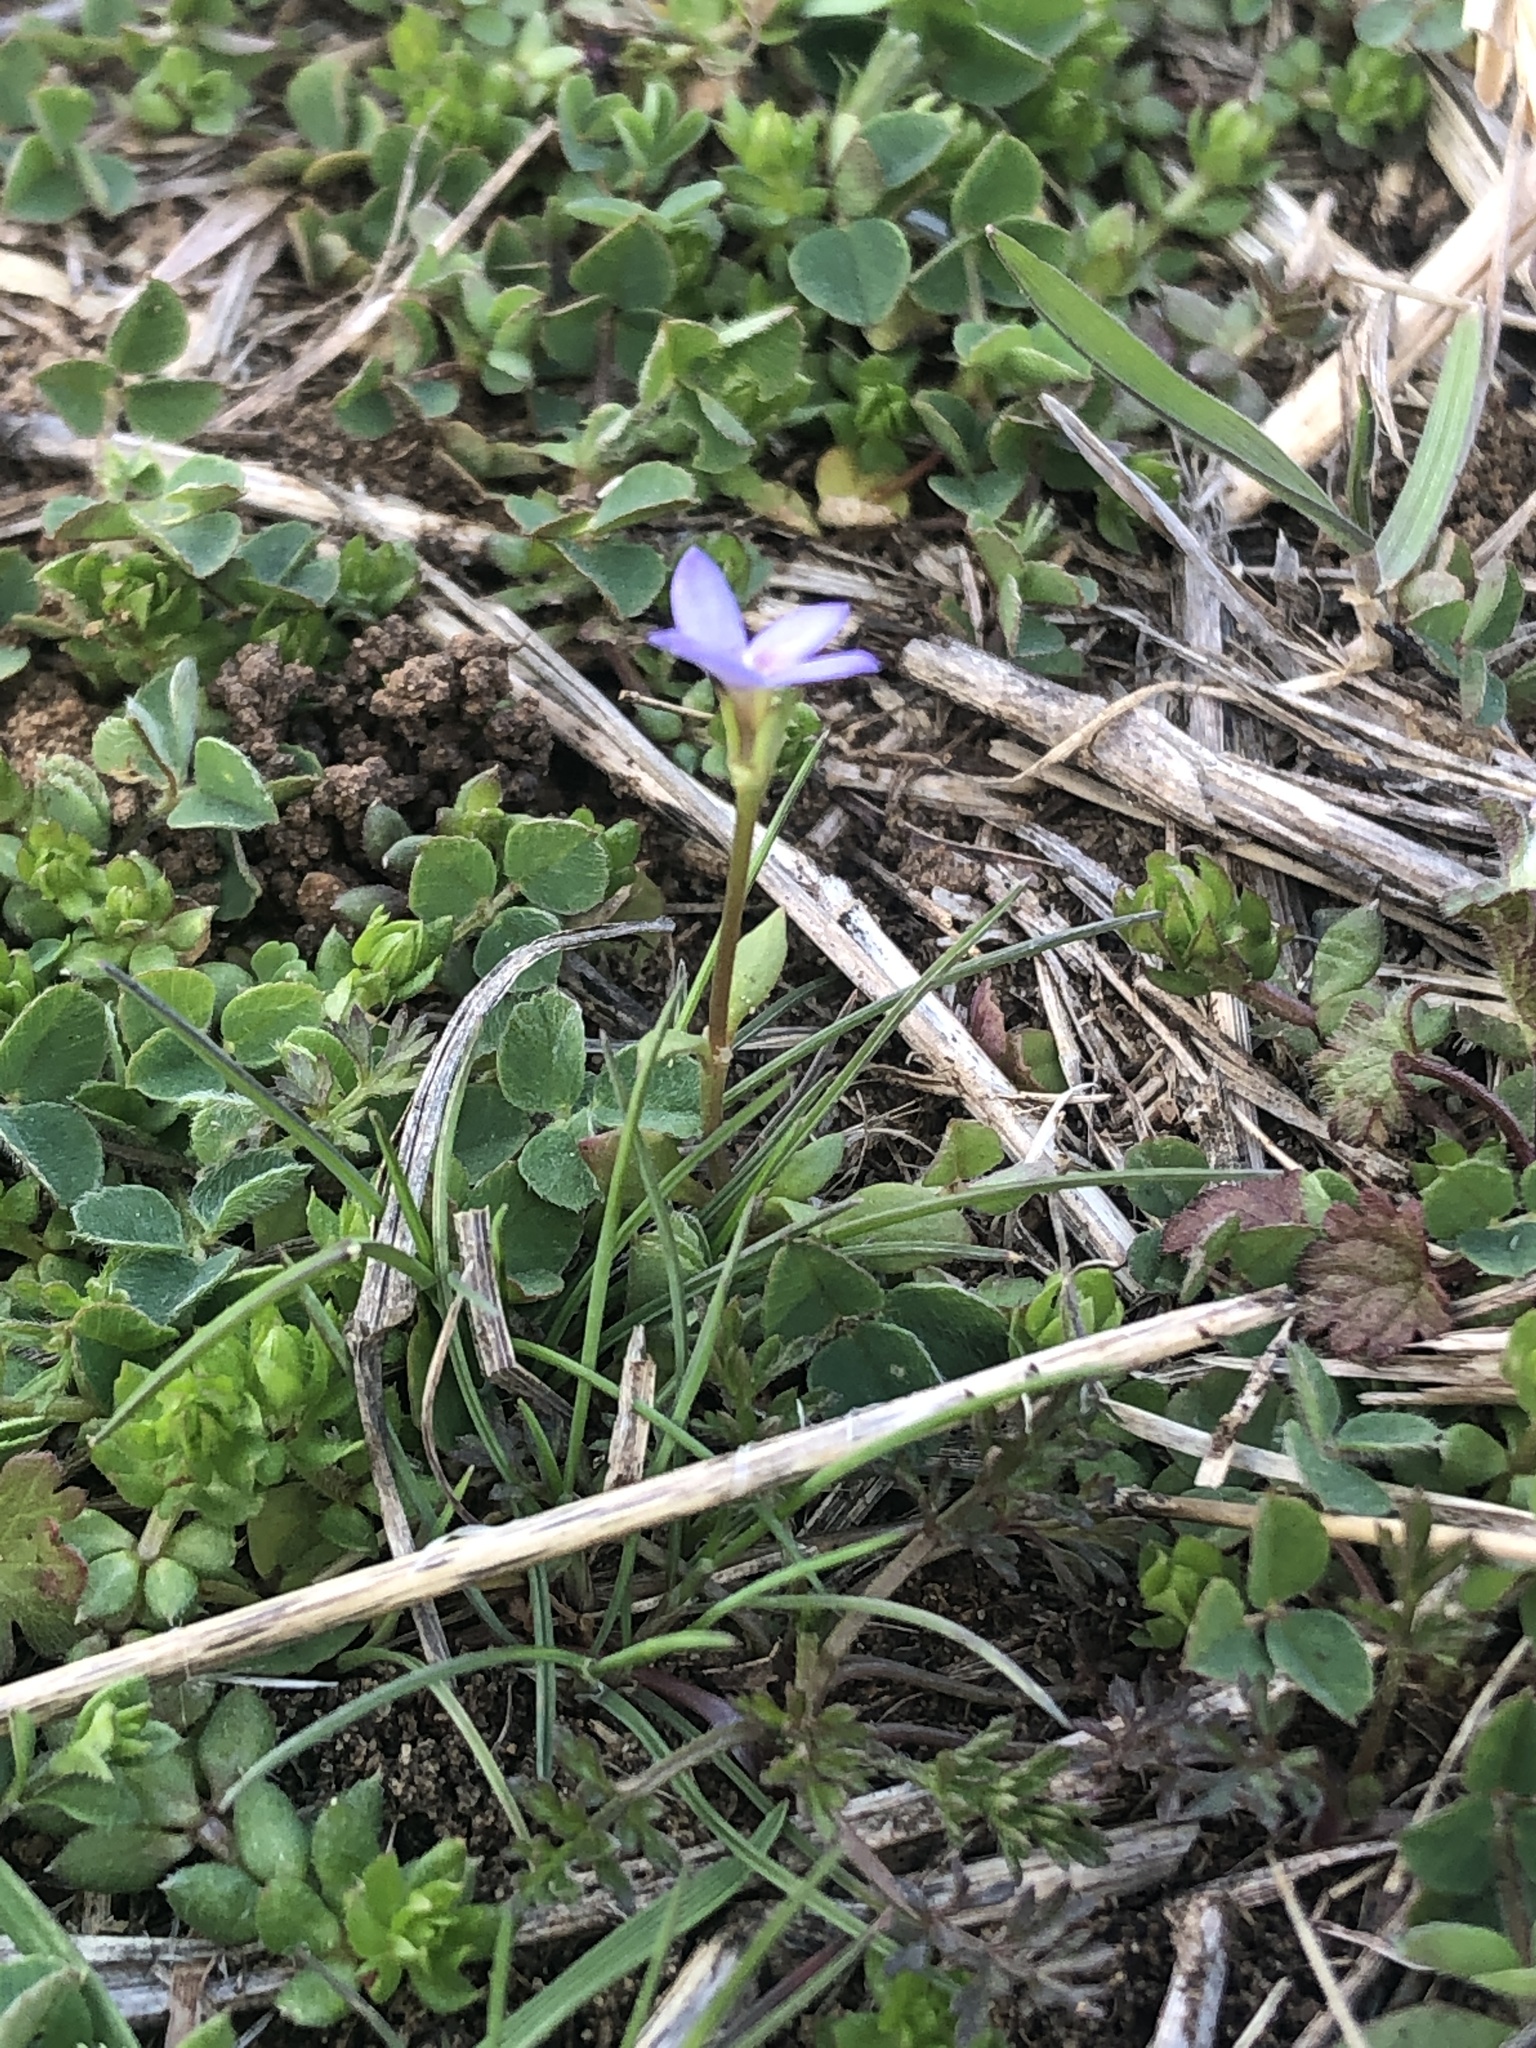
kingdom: Plantae
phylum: Tracheophyta
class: Magnoliopsida
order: Gentianales
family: Rubiaceae
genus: Houstonia
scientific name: Houstonia pusilla
